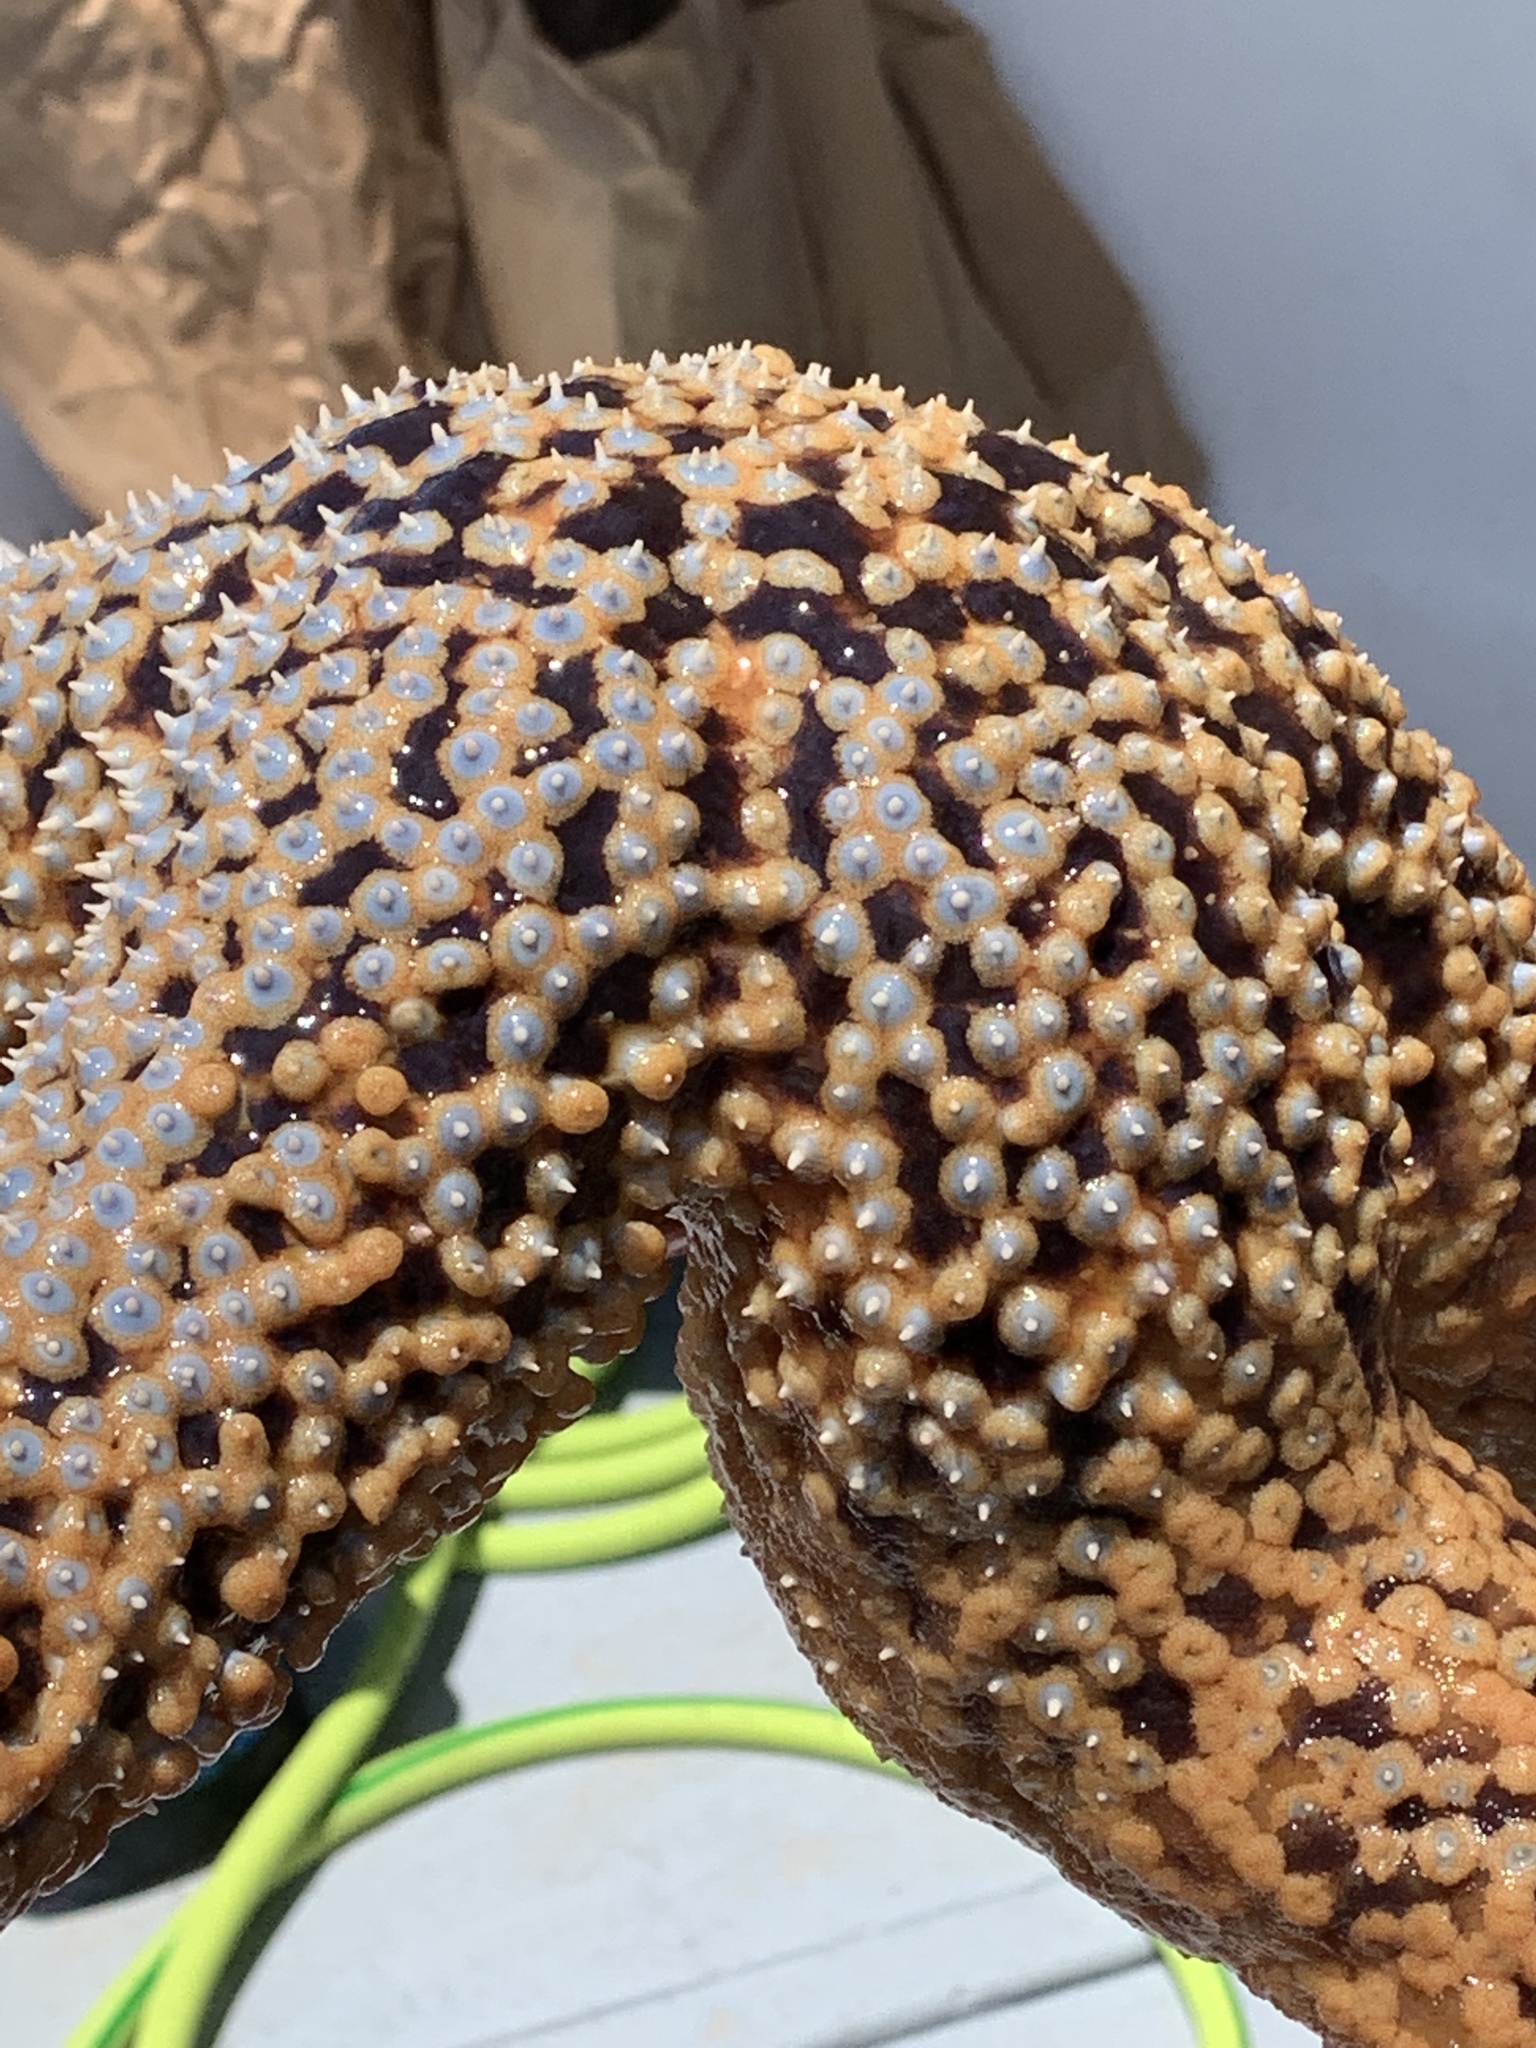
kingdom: Animalia
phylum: Echinodermata
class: Asteroidea
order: Forcipulatida
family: Asteriidae
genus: Pisaster
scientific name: Pisaster giganteus
